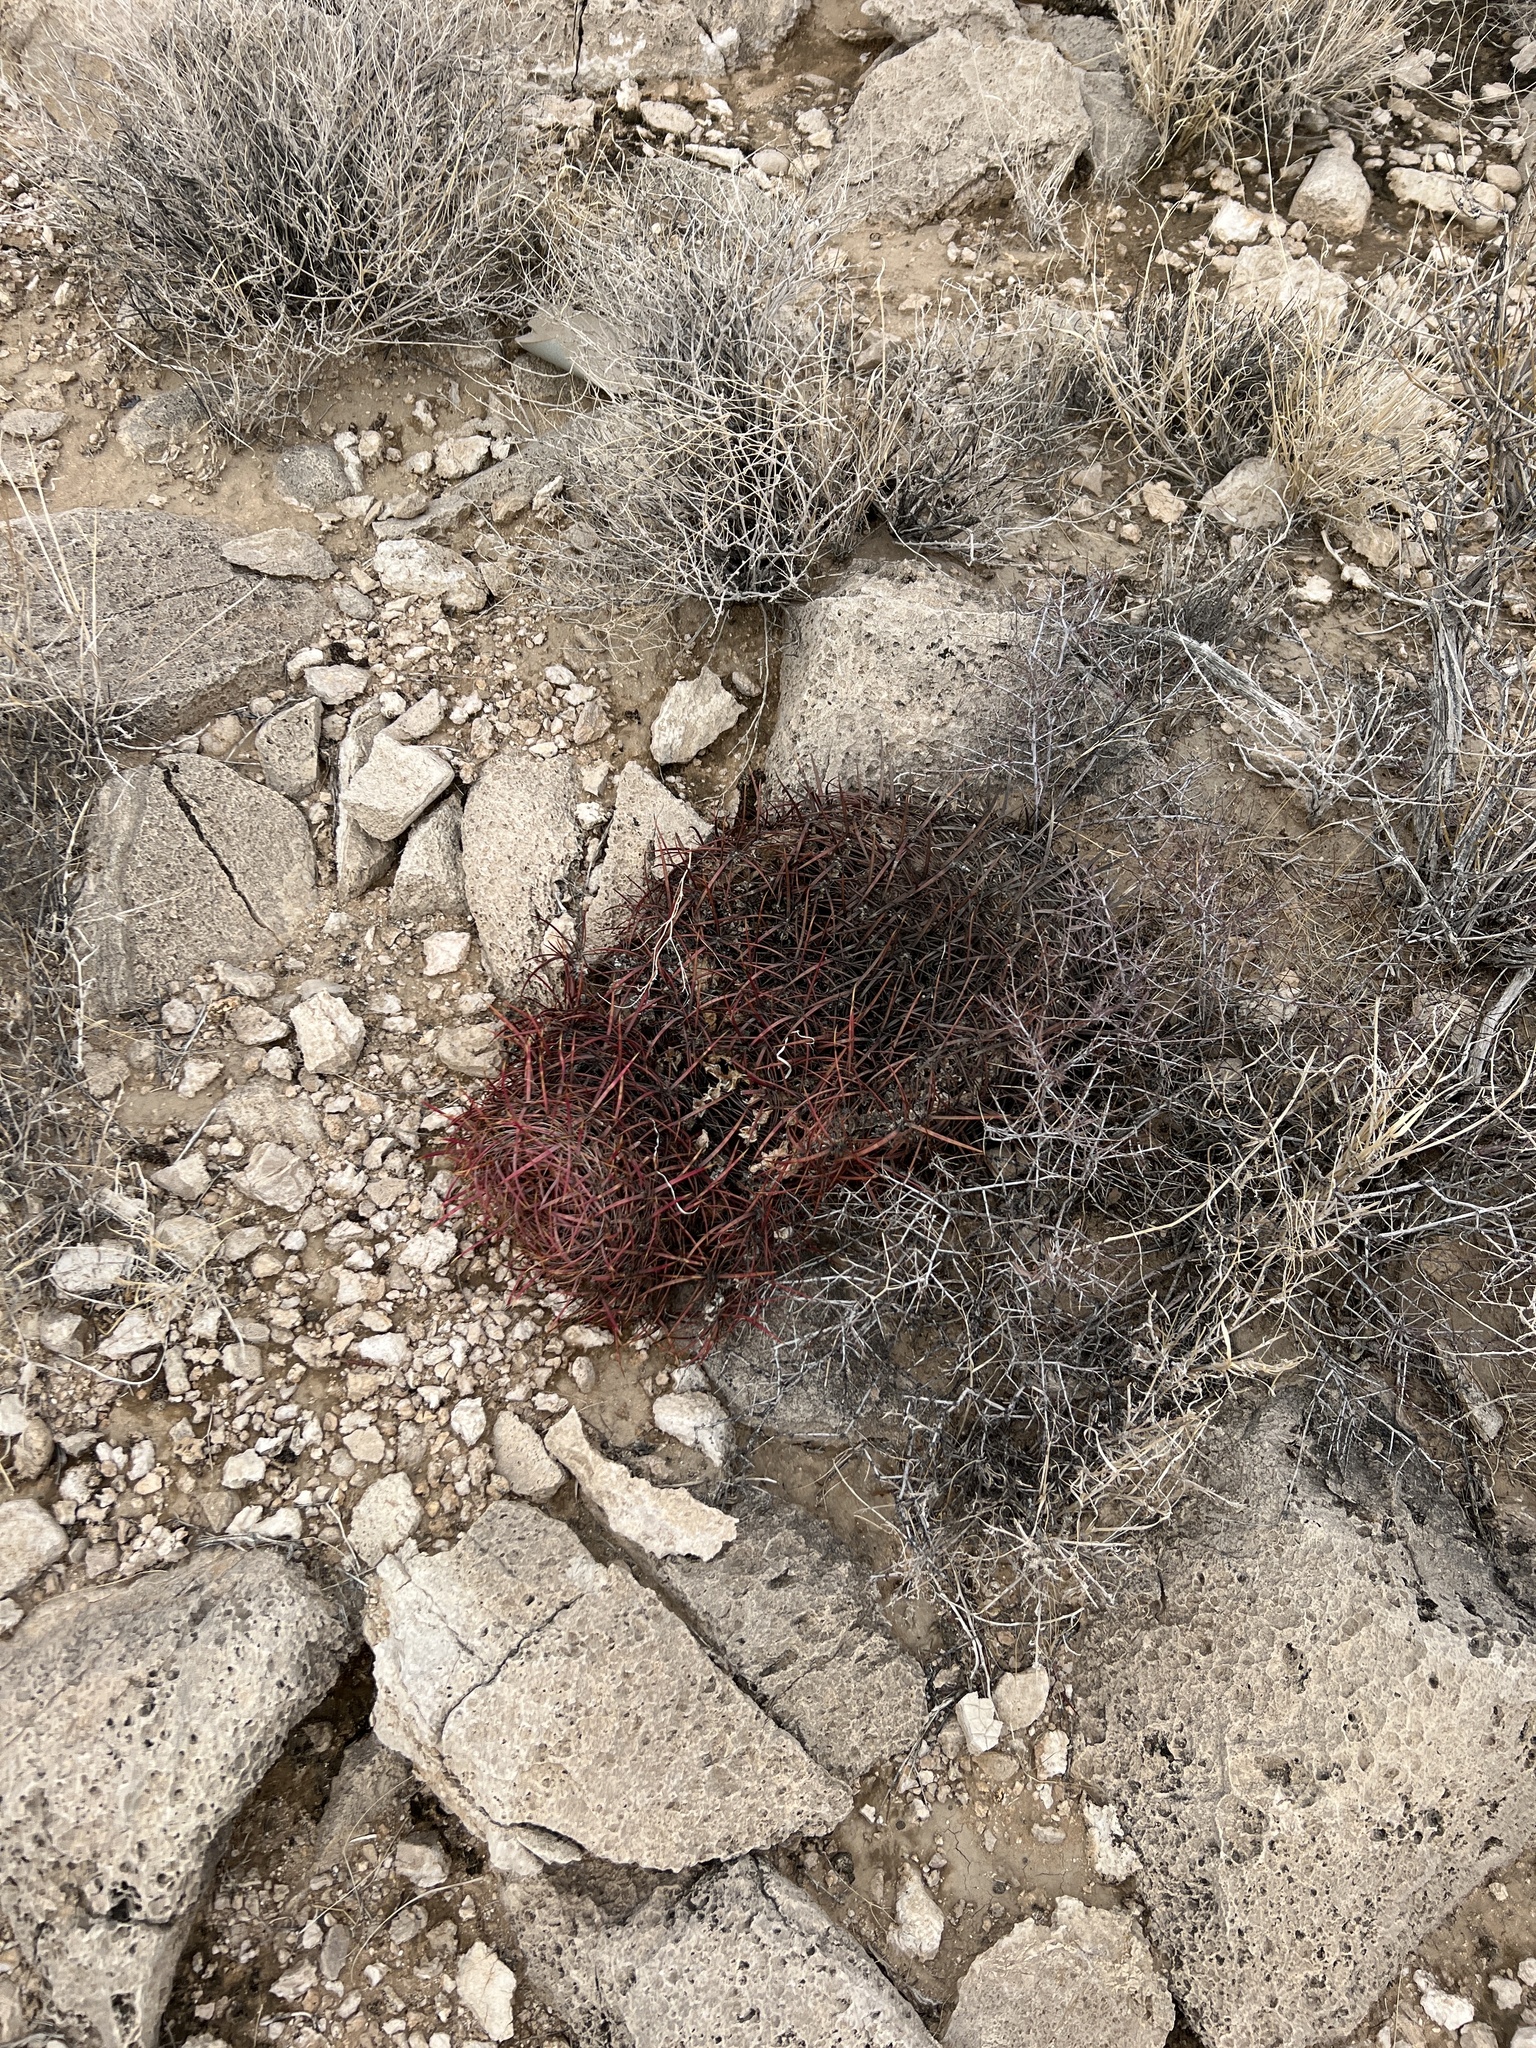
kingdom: Plantae
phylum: Tracheophyta
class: Magnoliopsida
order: Caryophyllales
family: Cactaceae
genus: Ferocactus
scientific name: Ferocactus cylindraceus
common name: California barrel cactus
